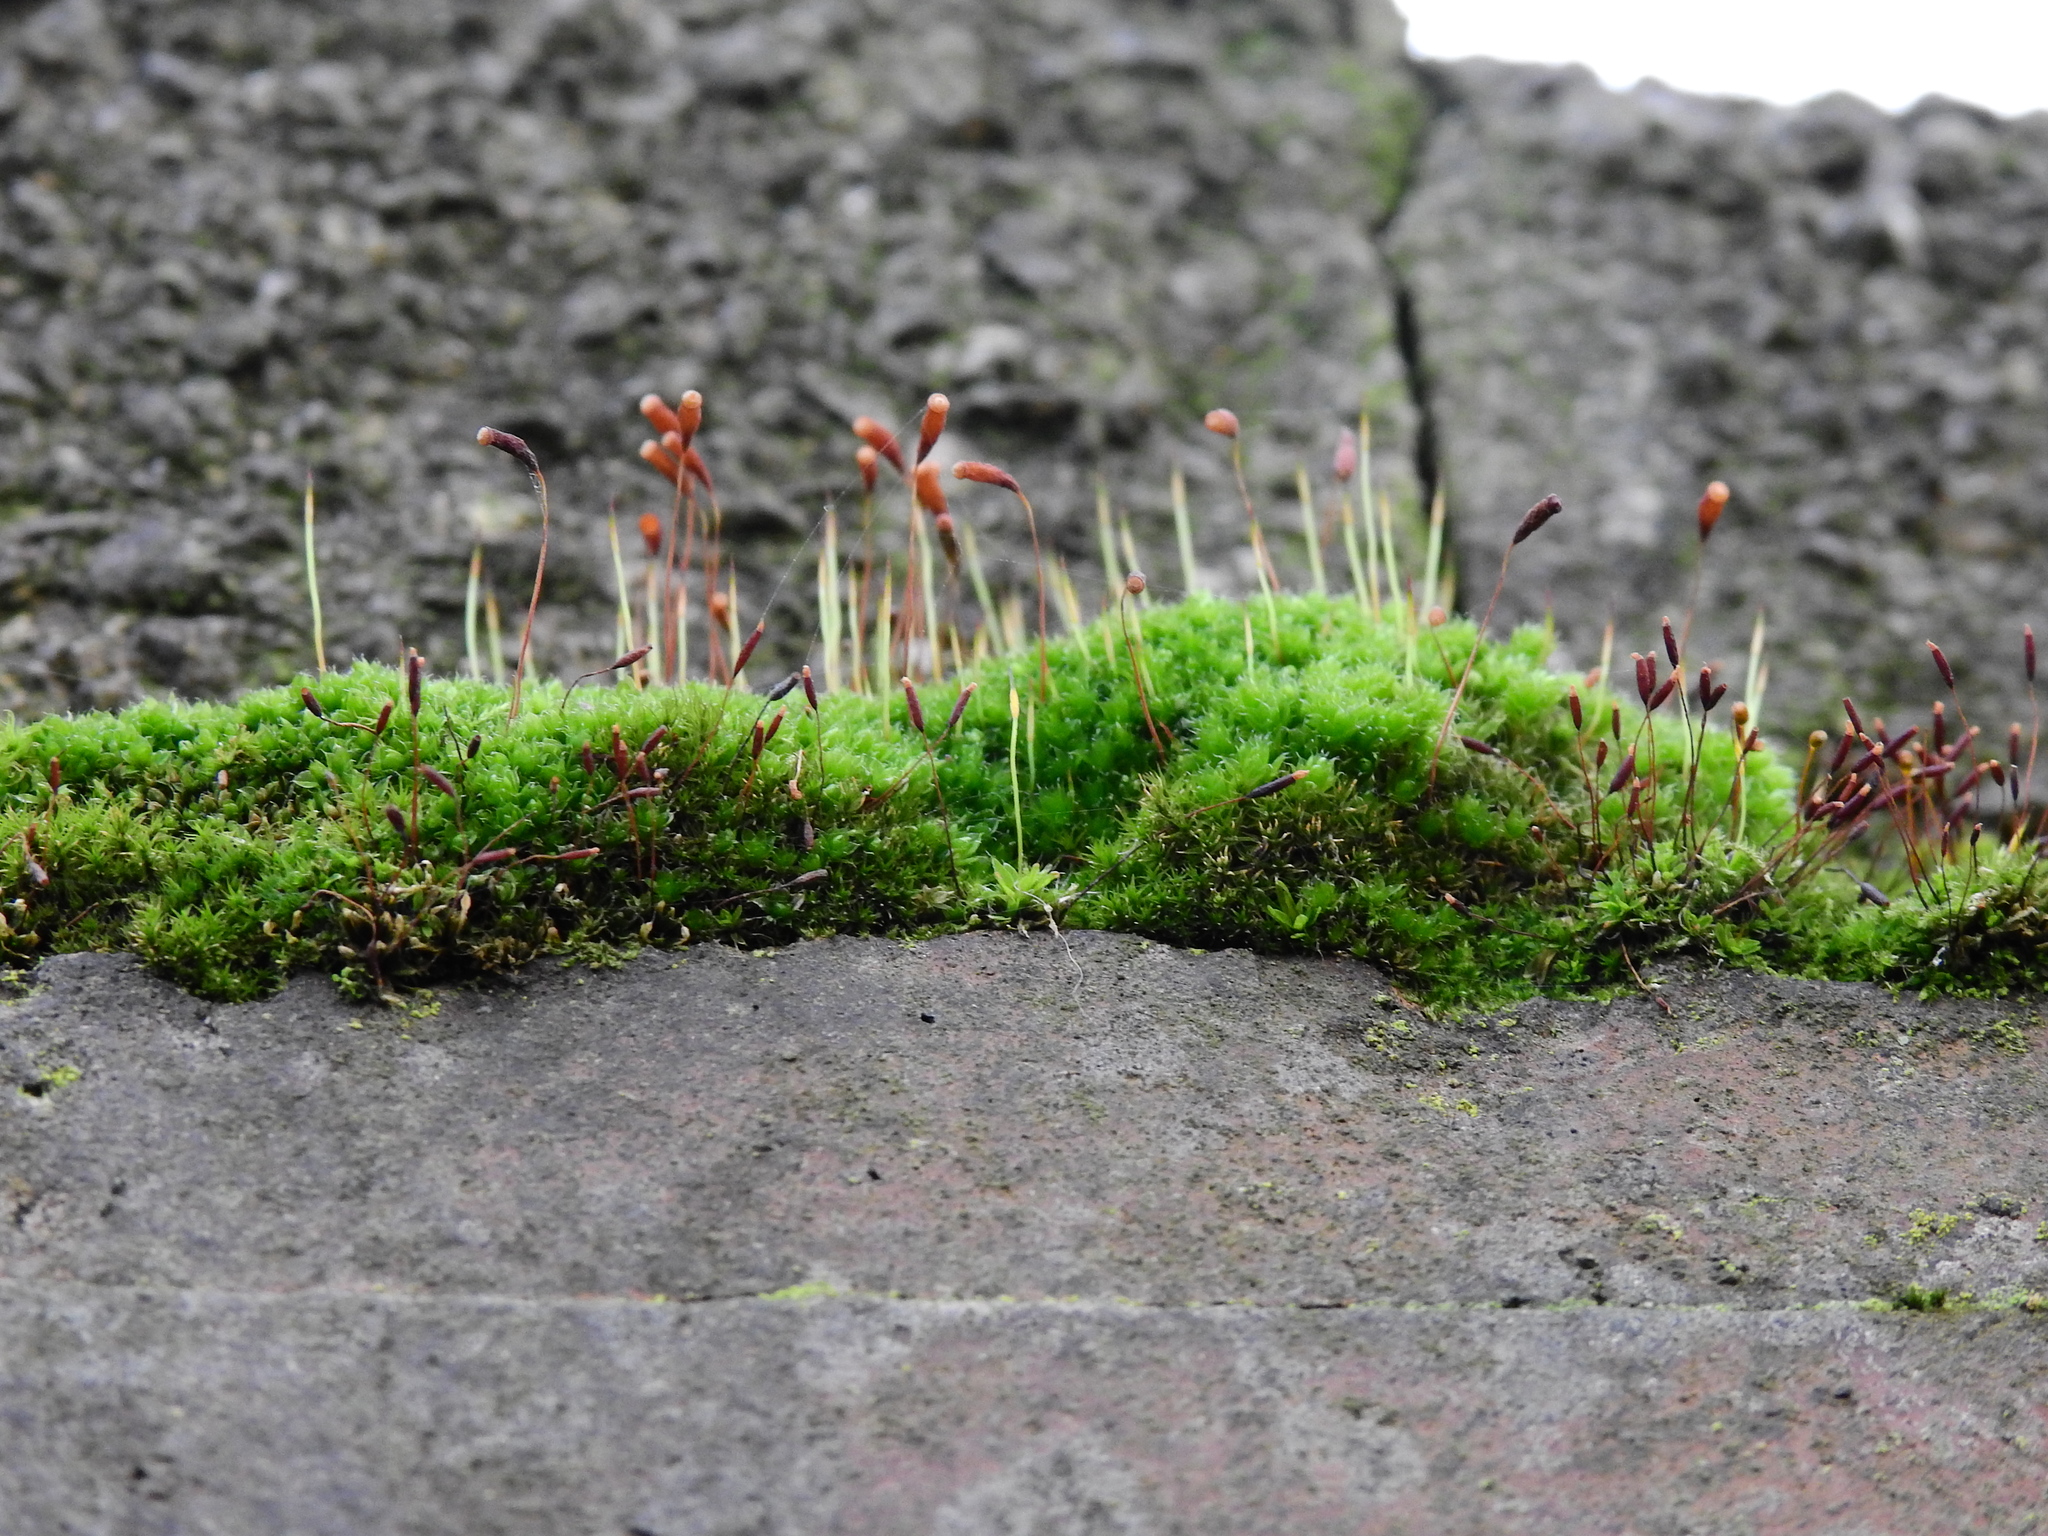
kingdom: Plantae
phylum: Bryophyta
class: Bryopsida
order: Bryales
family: Bryaceae
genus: Rosulabryum
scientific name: Rosulabryum capillare
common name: Capillary thread-moss
